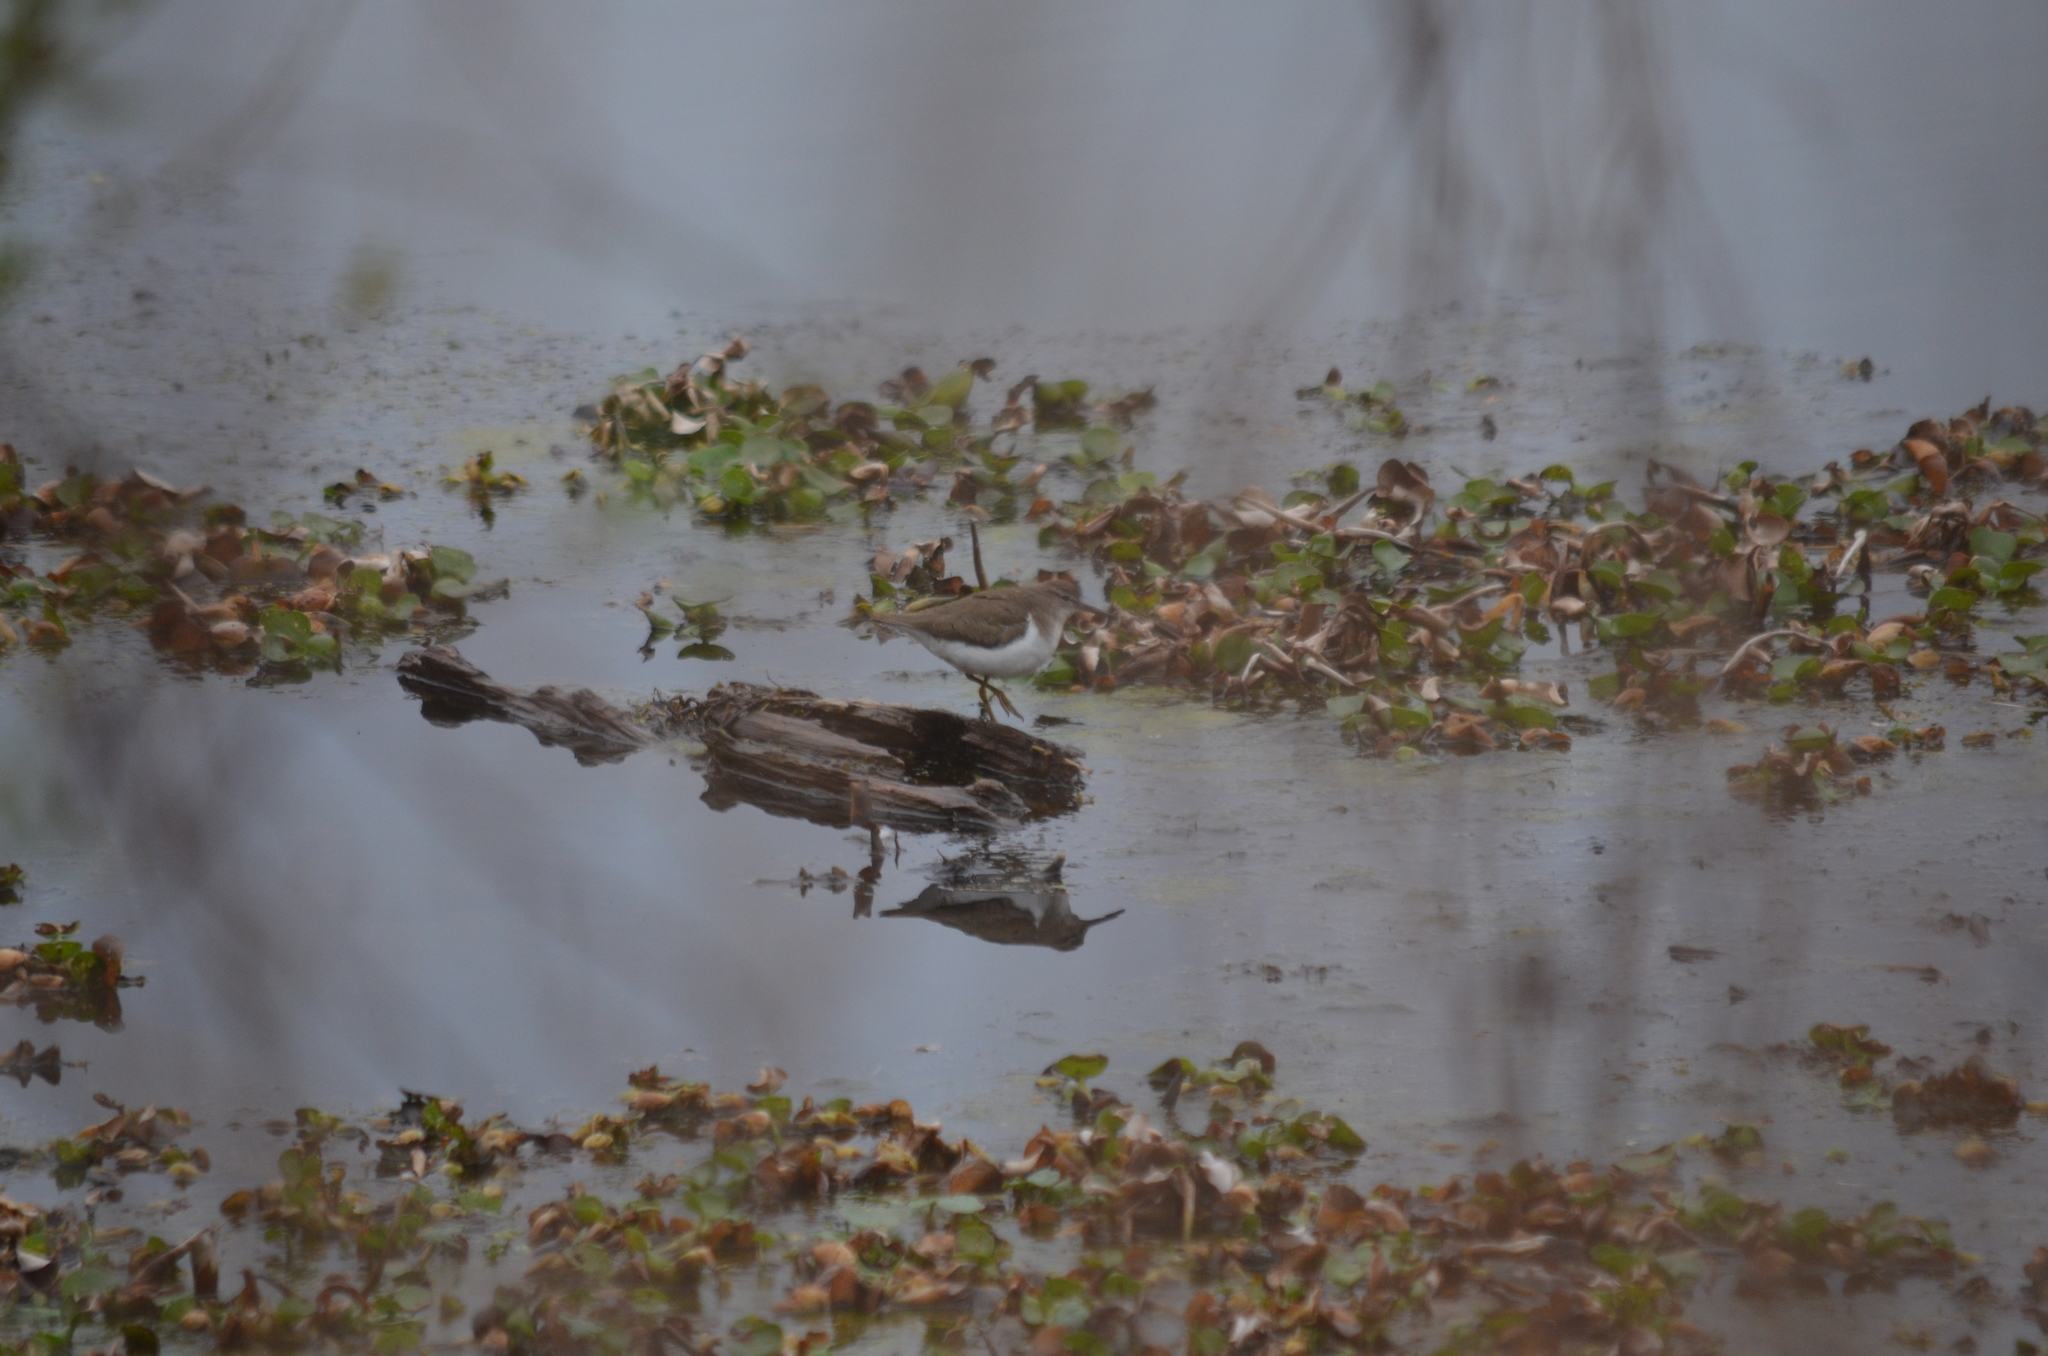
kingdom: Animalia
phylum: Chordata
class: Aves
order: Charadriiformes
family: Scolopacidae
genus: Actitis
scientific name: Actitis macularius
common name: Spotted sandpiper
